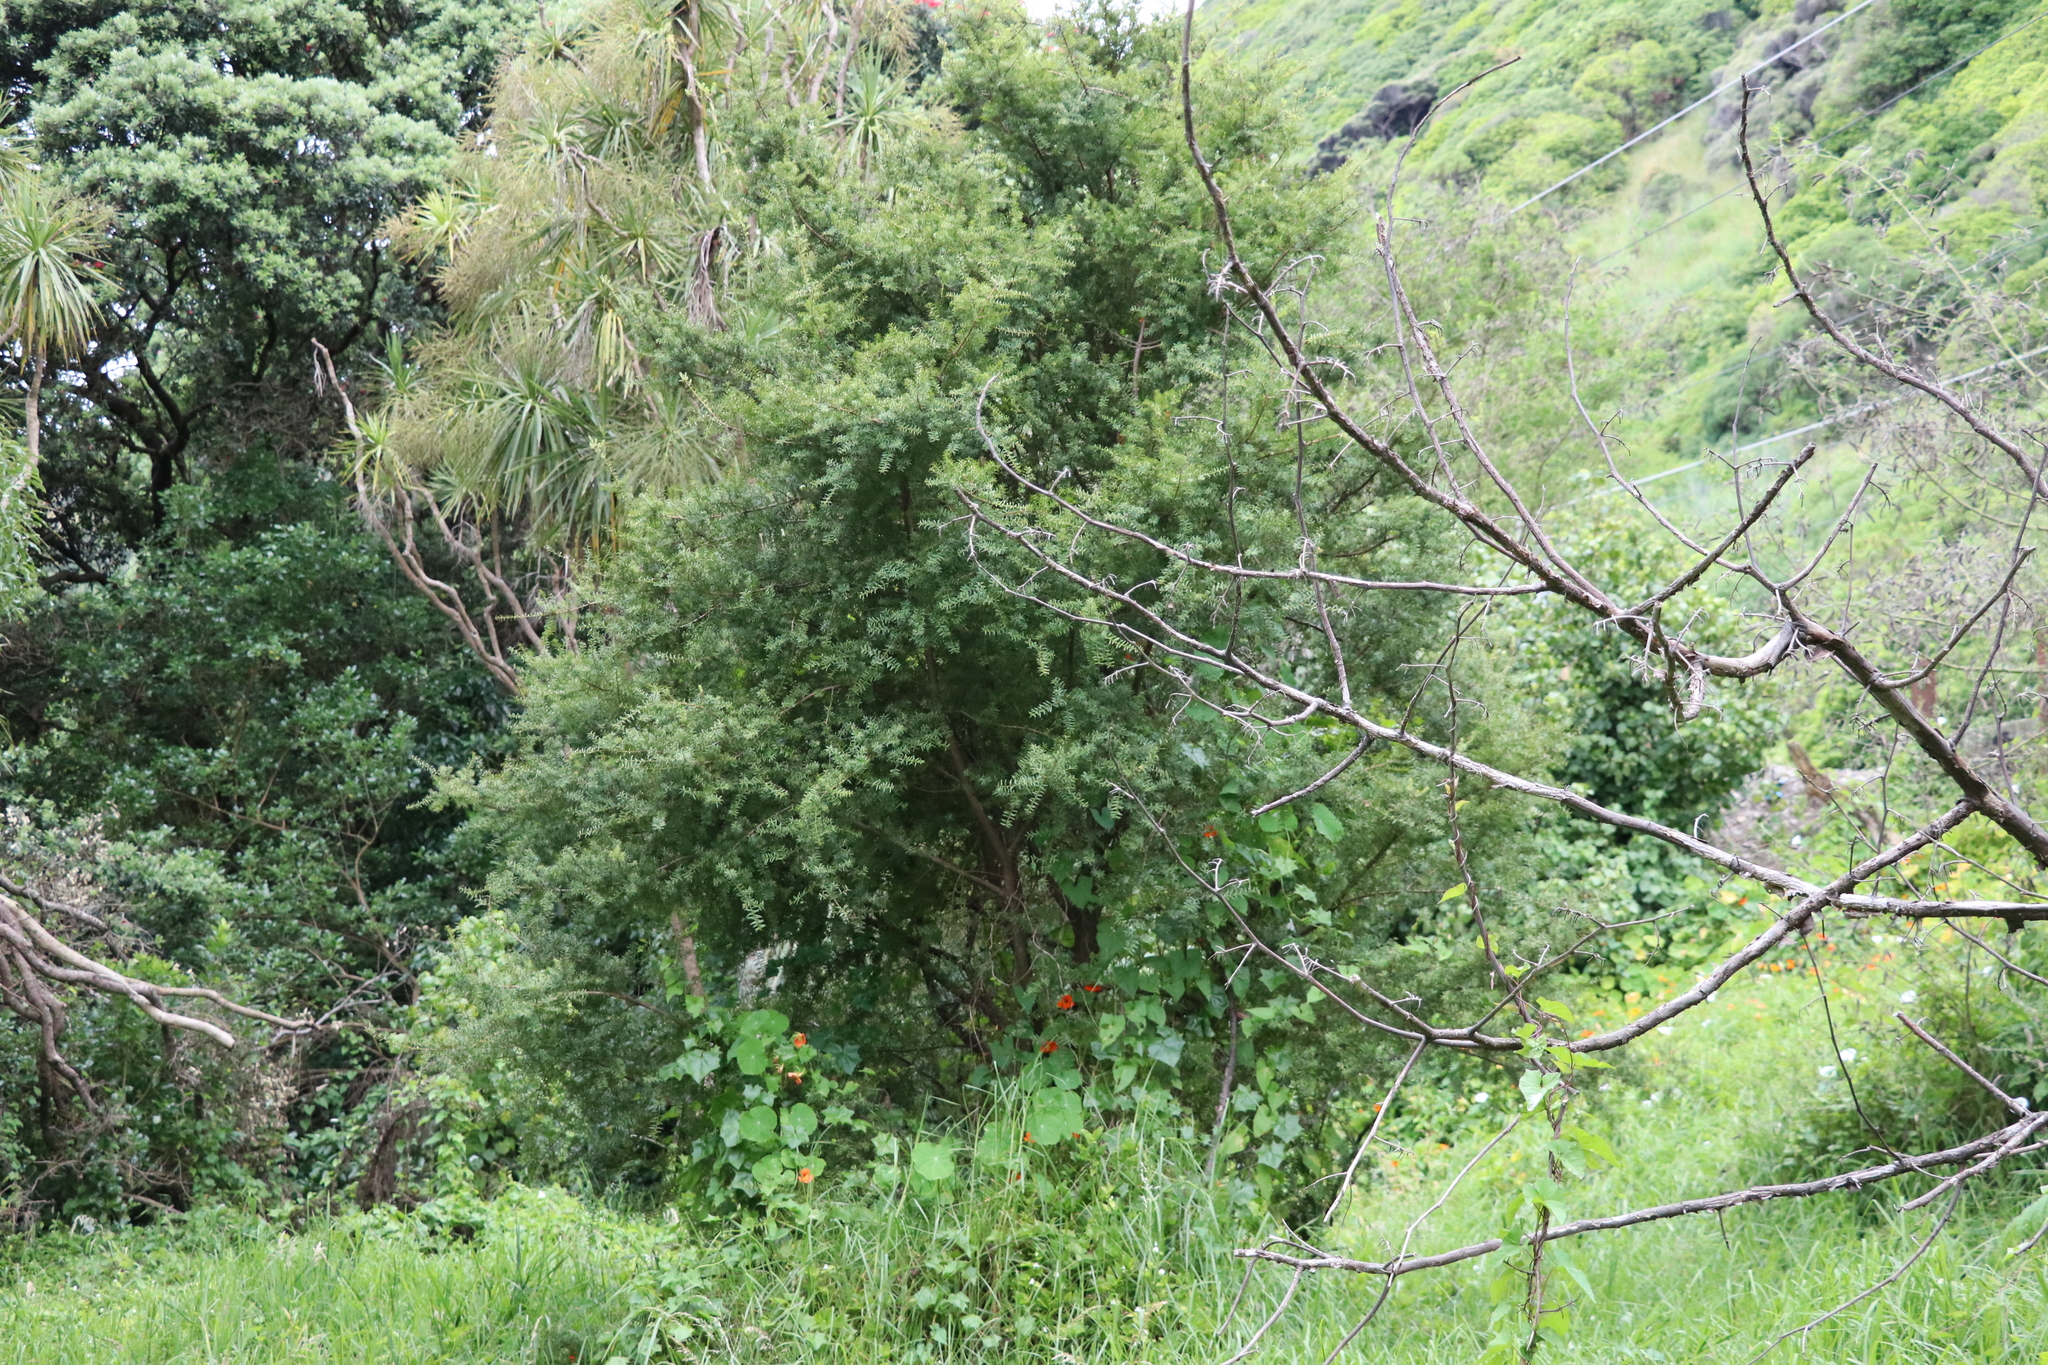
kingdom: Plantae
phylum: Tracheophyta
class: Pinopsida
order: Pinales
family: Podocarpaceae
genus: Podocarpus
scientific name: Podocarpus totara
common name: Totara
